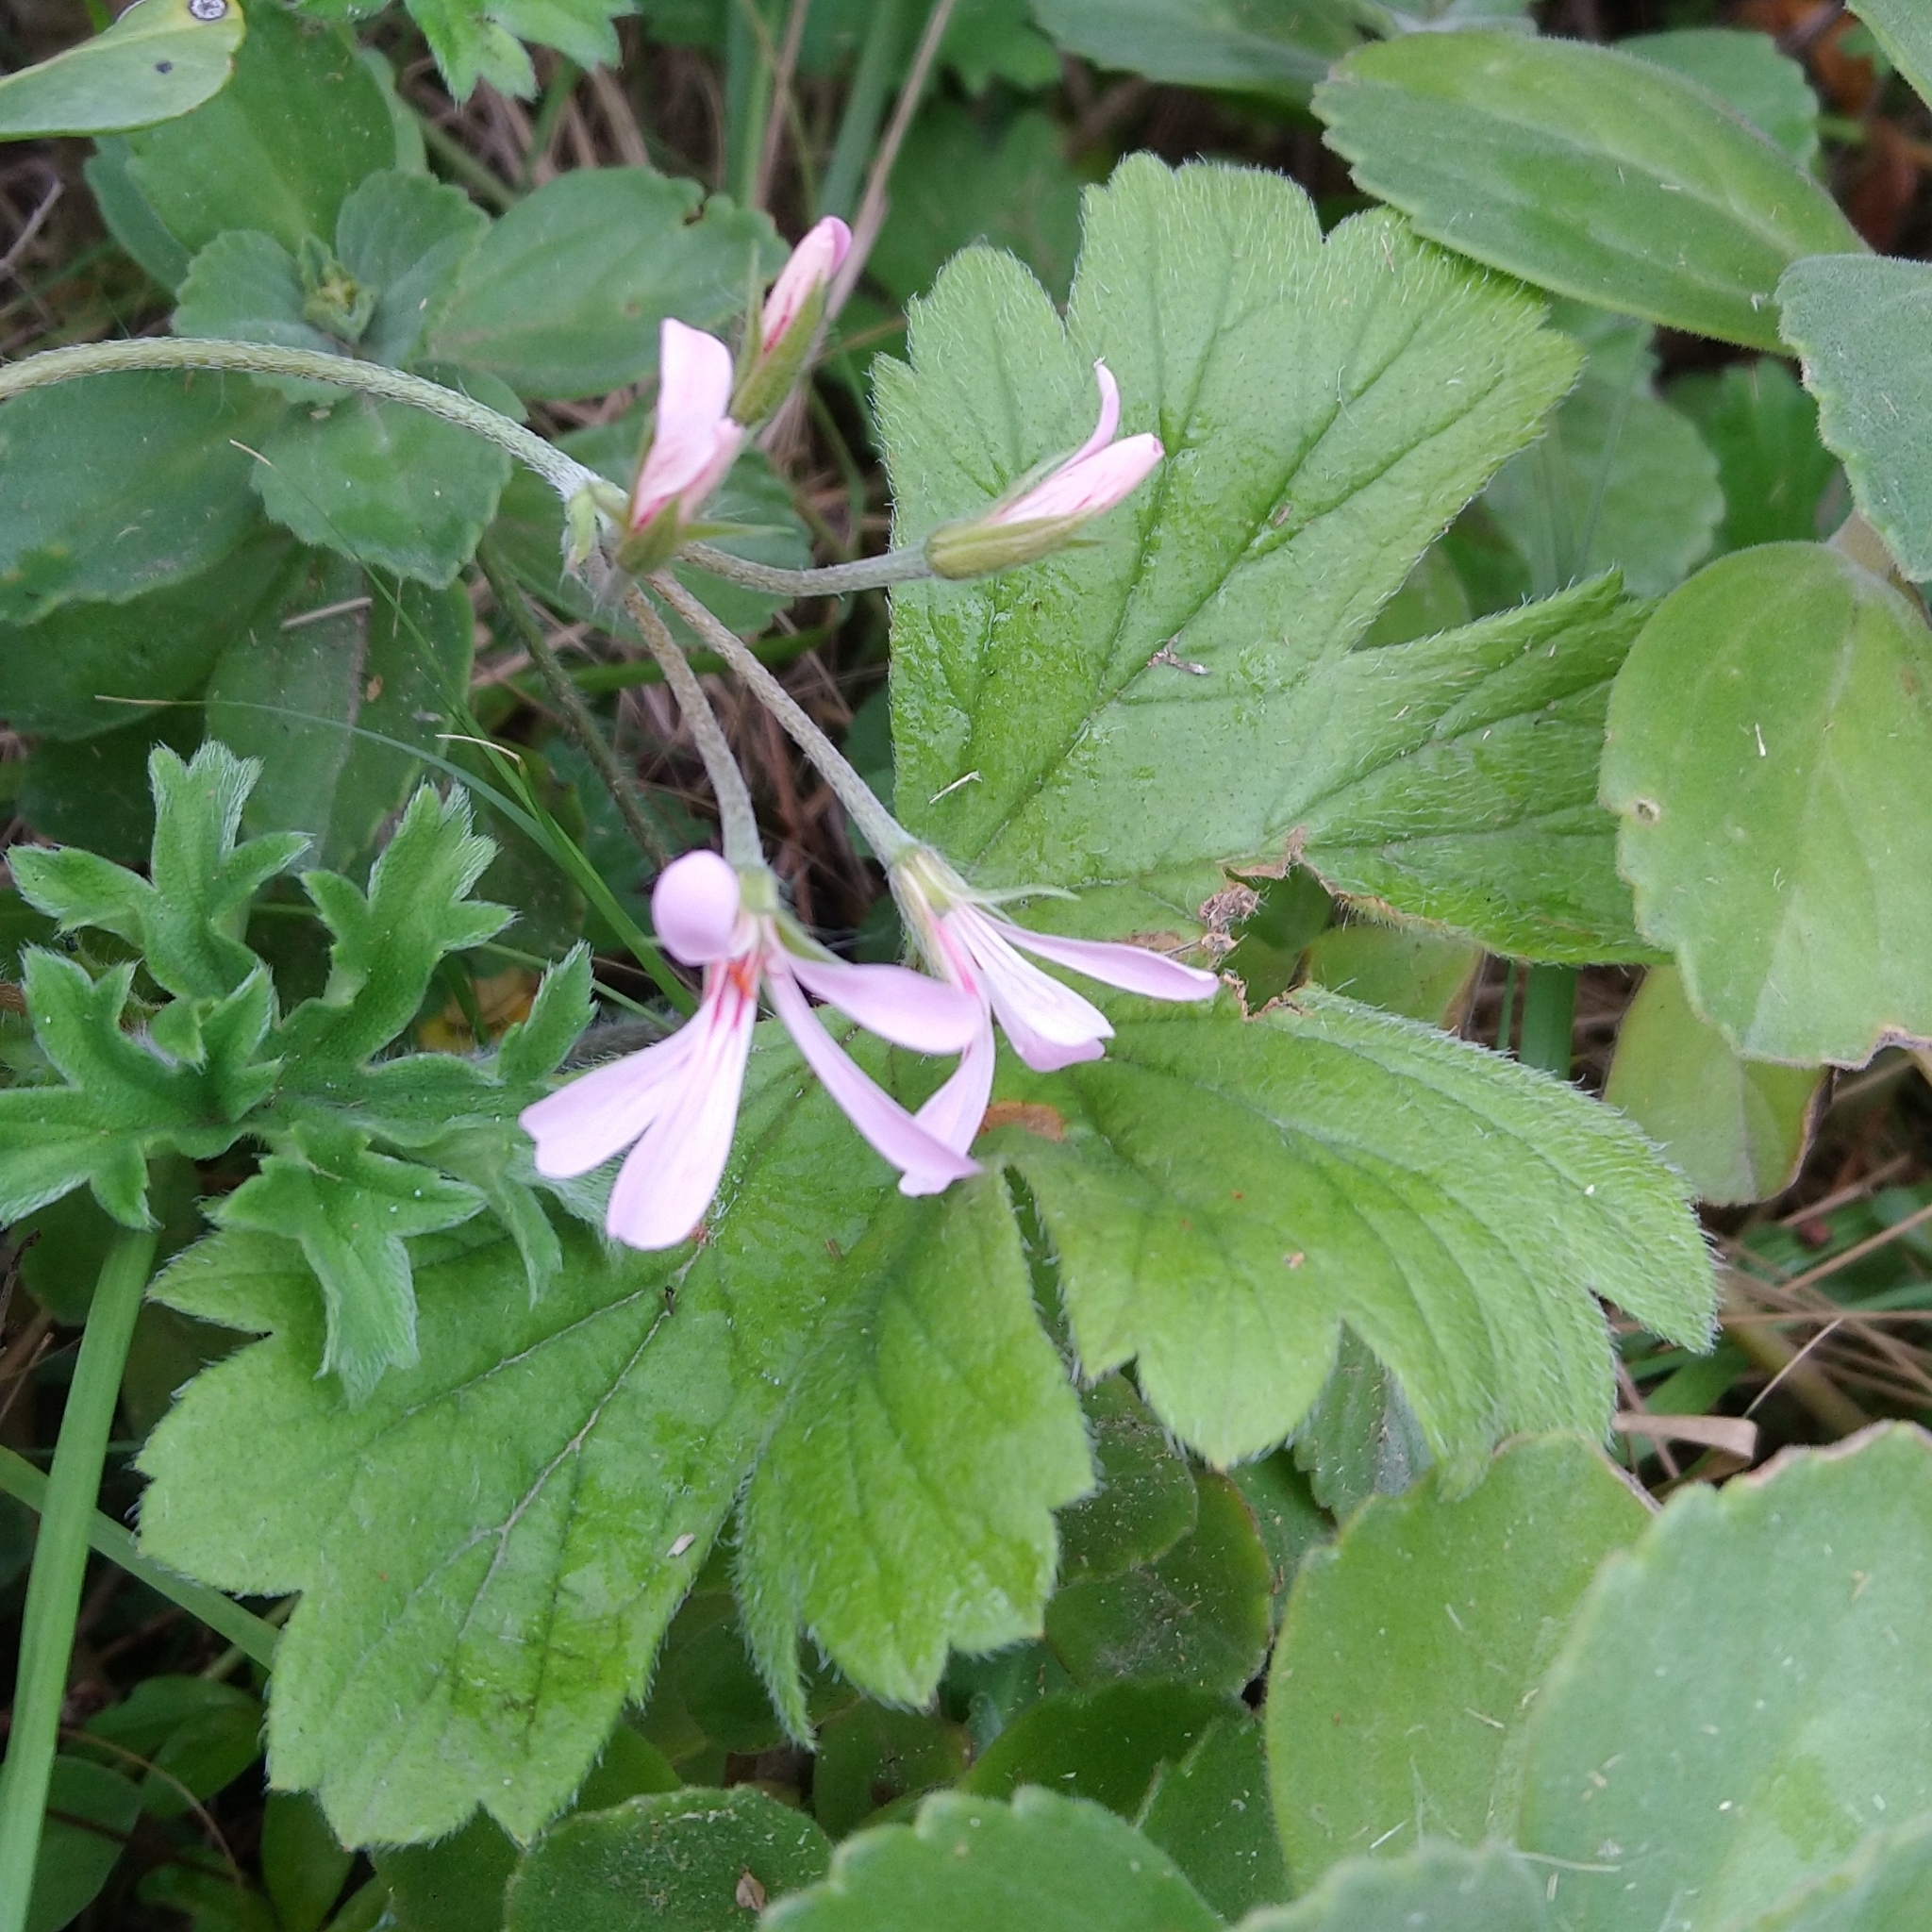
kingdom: Plantae
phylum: Tracheophyta
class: Magnoliopsida
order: Geraniales
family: Geraniaceae
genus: Pelargonium
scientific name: Pelargonium alchemilloides
